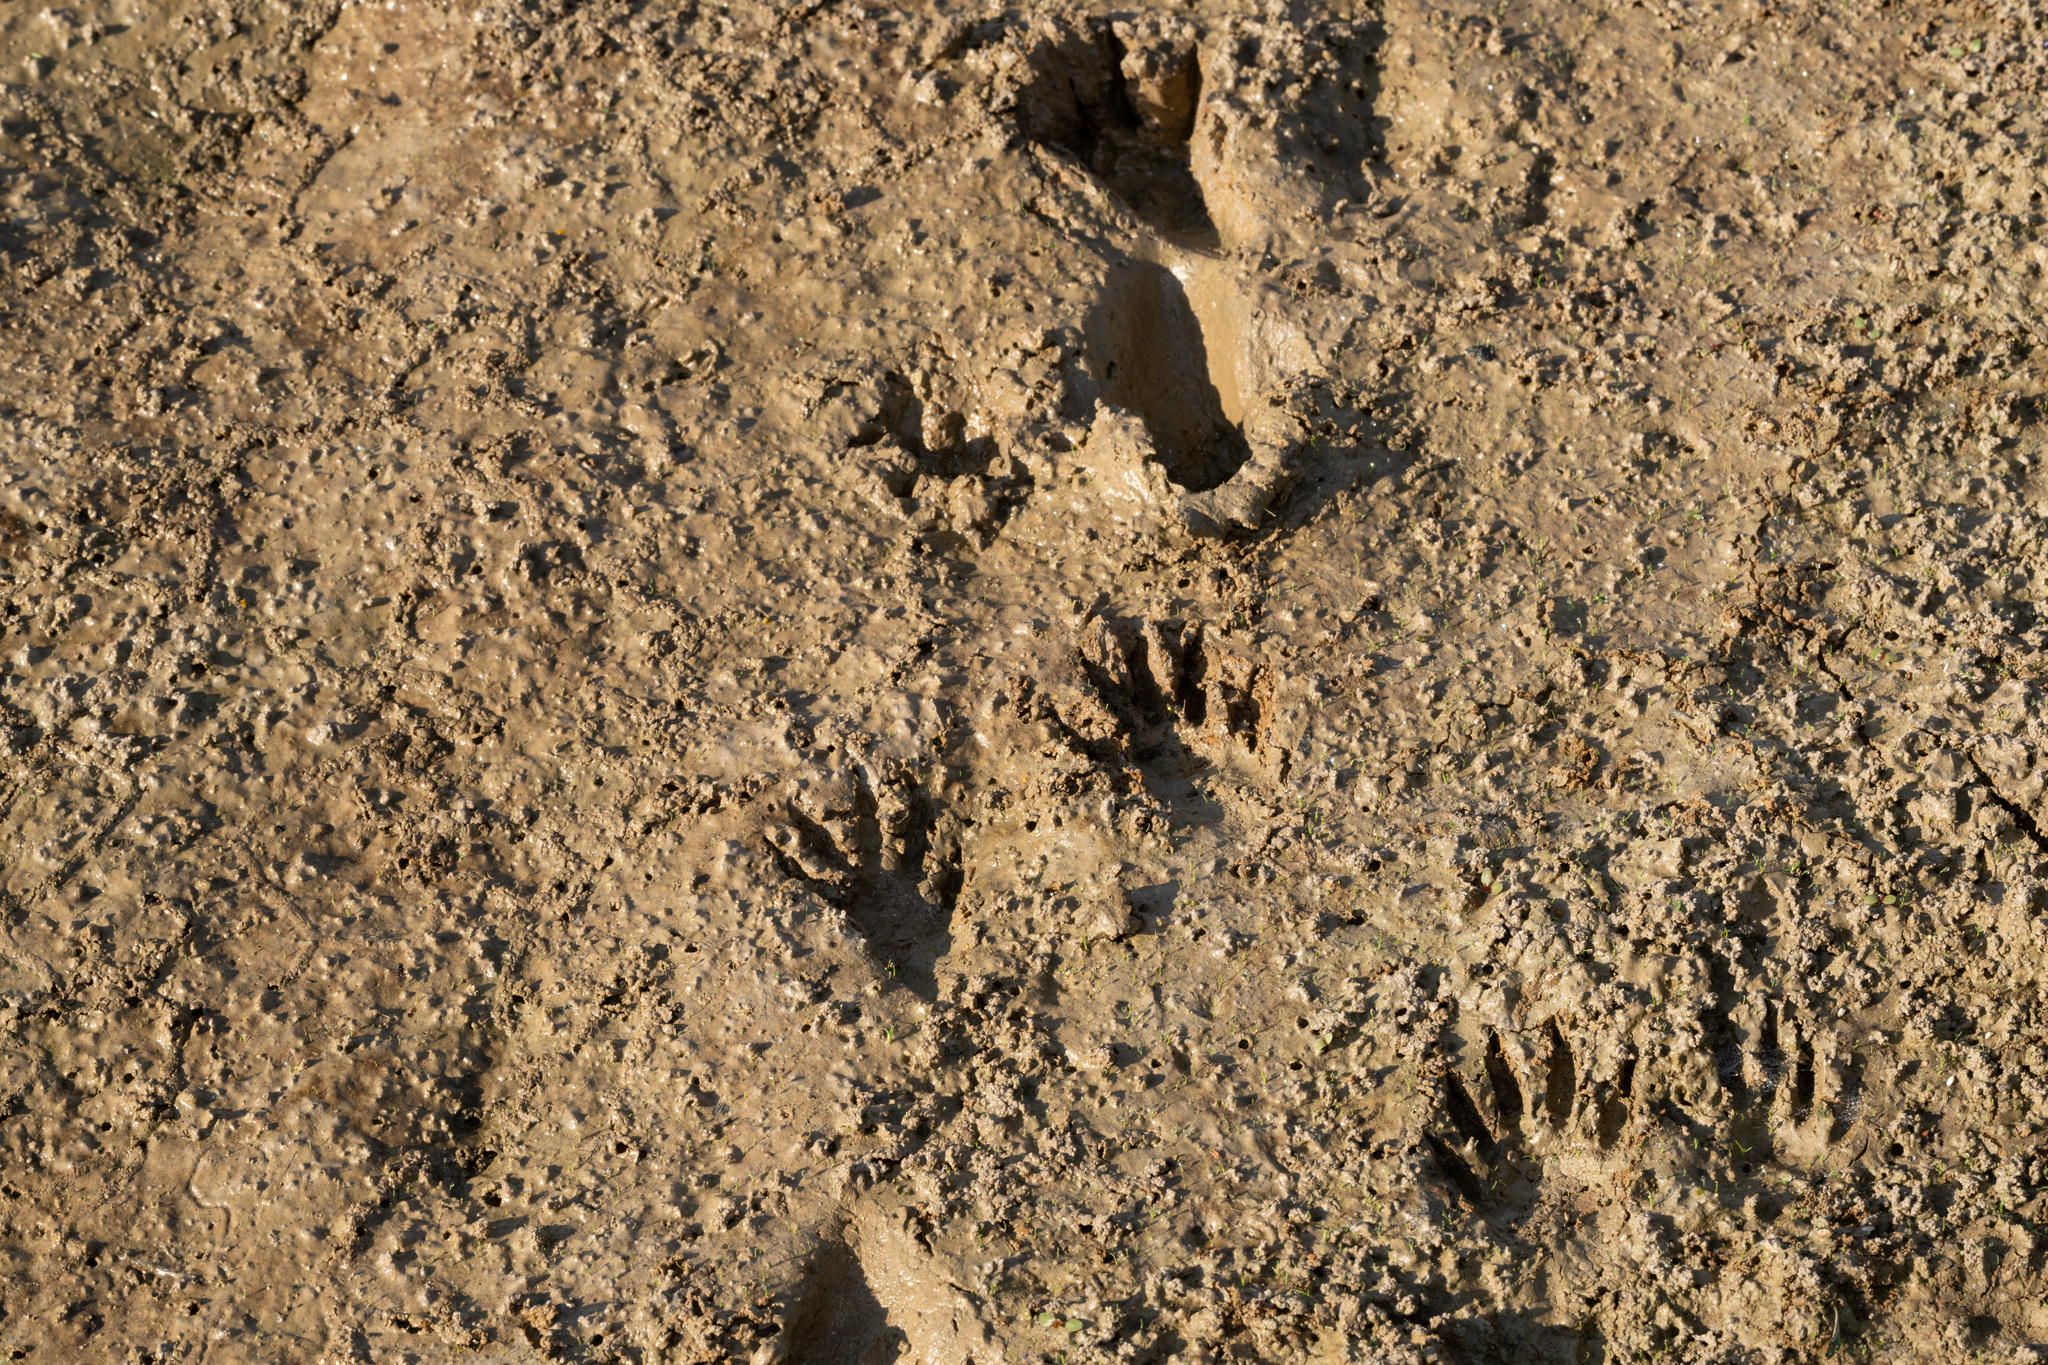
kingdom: Animalia
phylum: Chordata
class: Mammalia
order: Carnivora
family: Procyonidae
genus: Procyon
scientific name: Procyon lotor
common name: Raccoon
